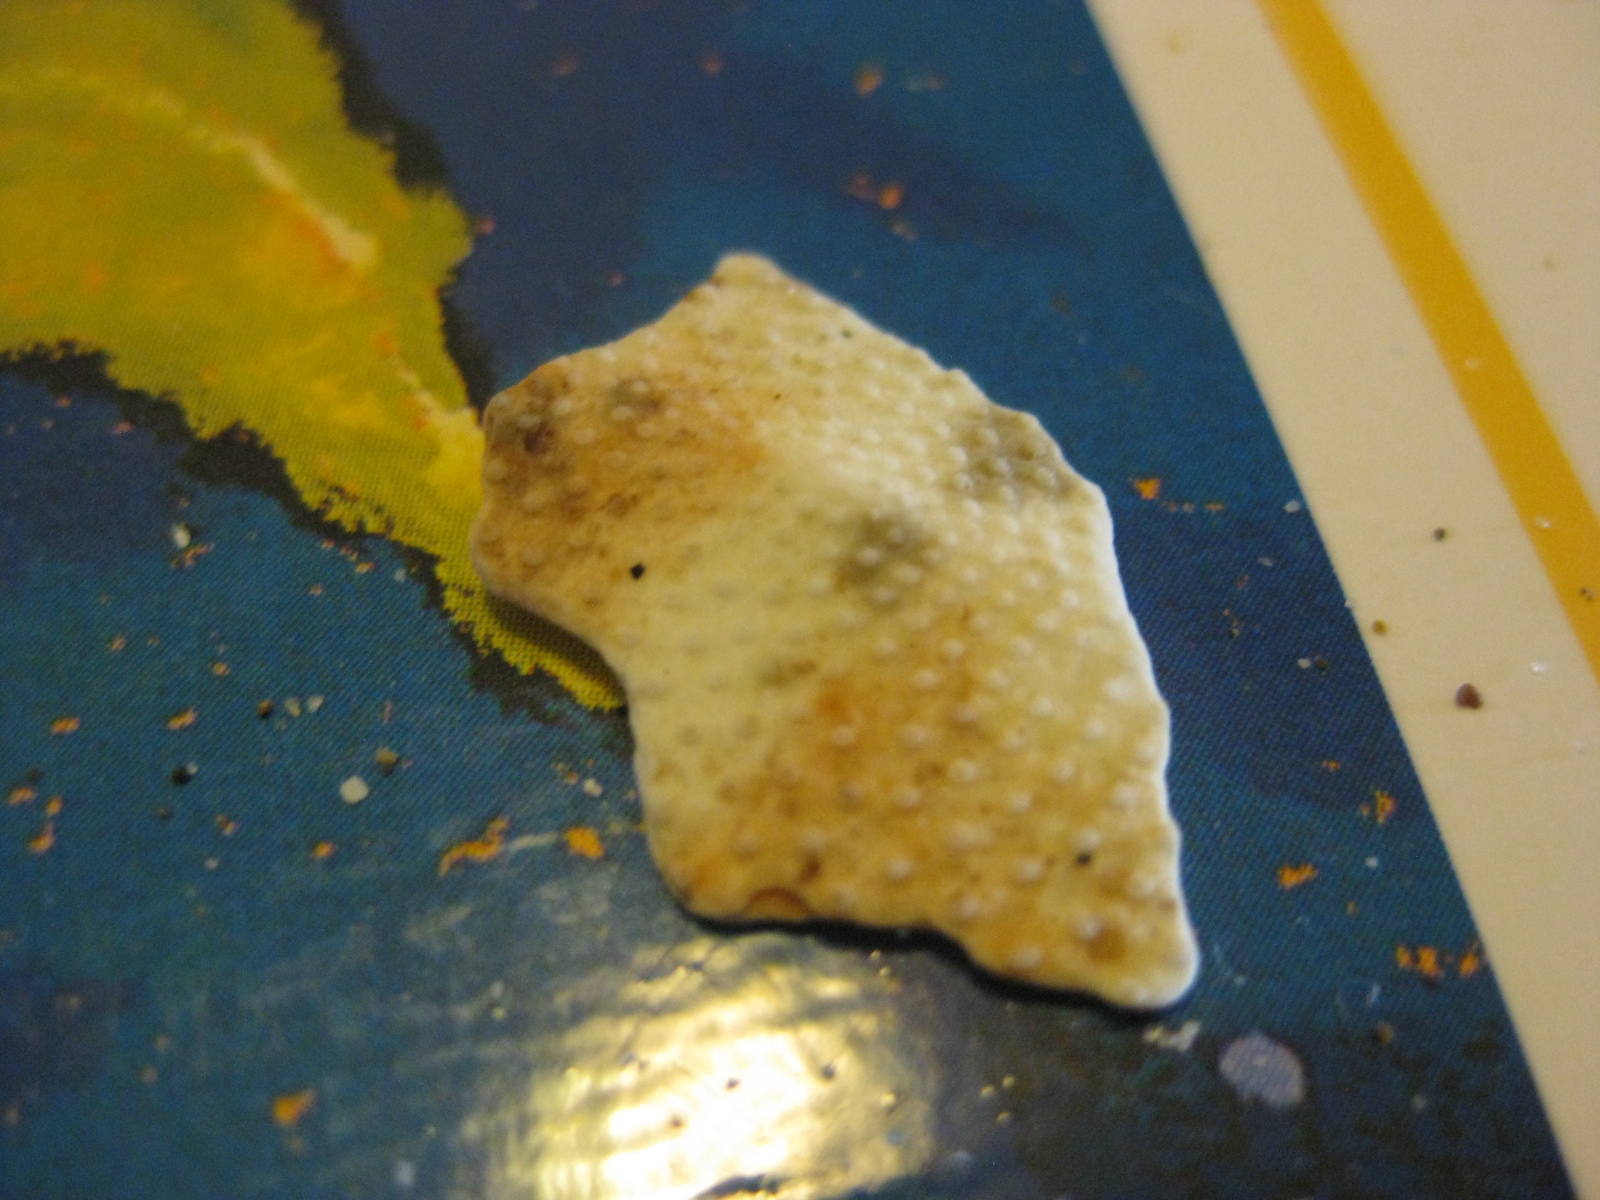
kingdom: Animalia
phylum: Echinodermata
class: Echinoidea
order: Spatangoida
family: Loveniidae
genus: Echinocardium
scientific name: Echinocardium cordatum
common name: Heart-urchin
